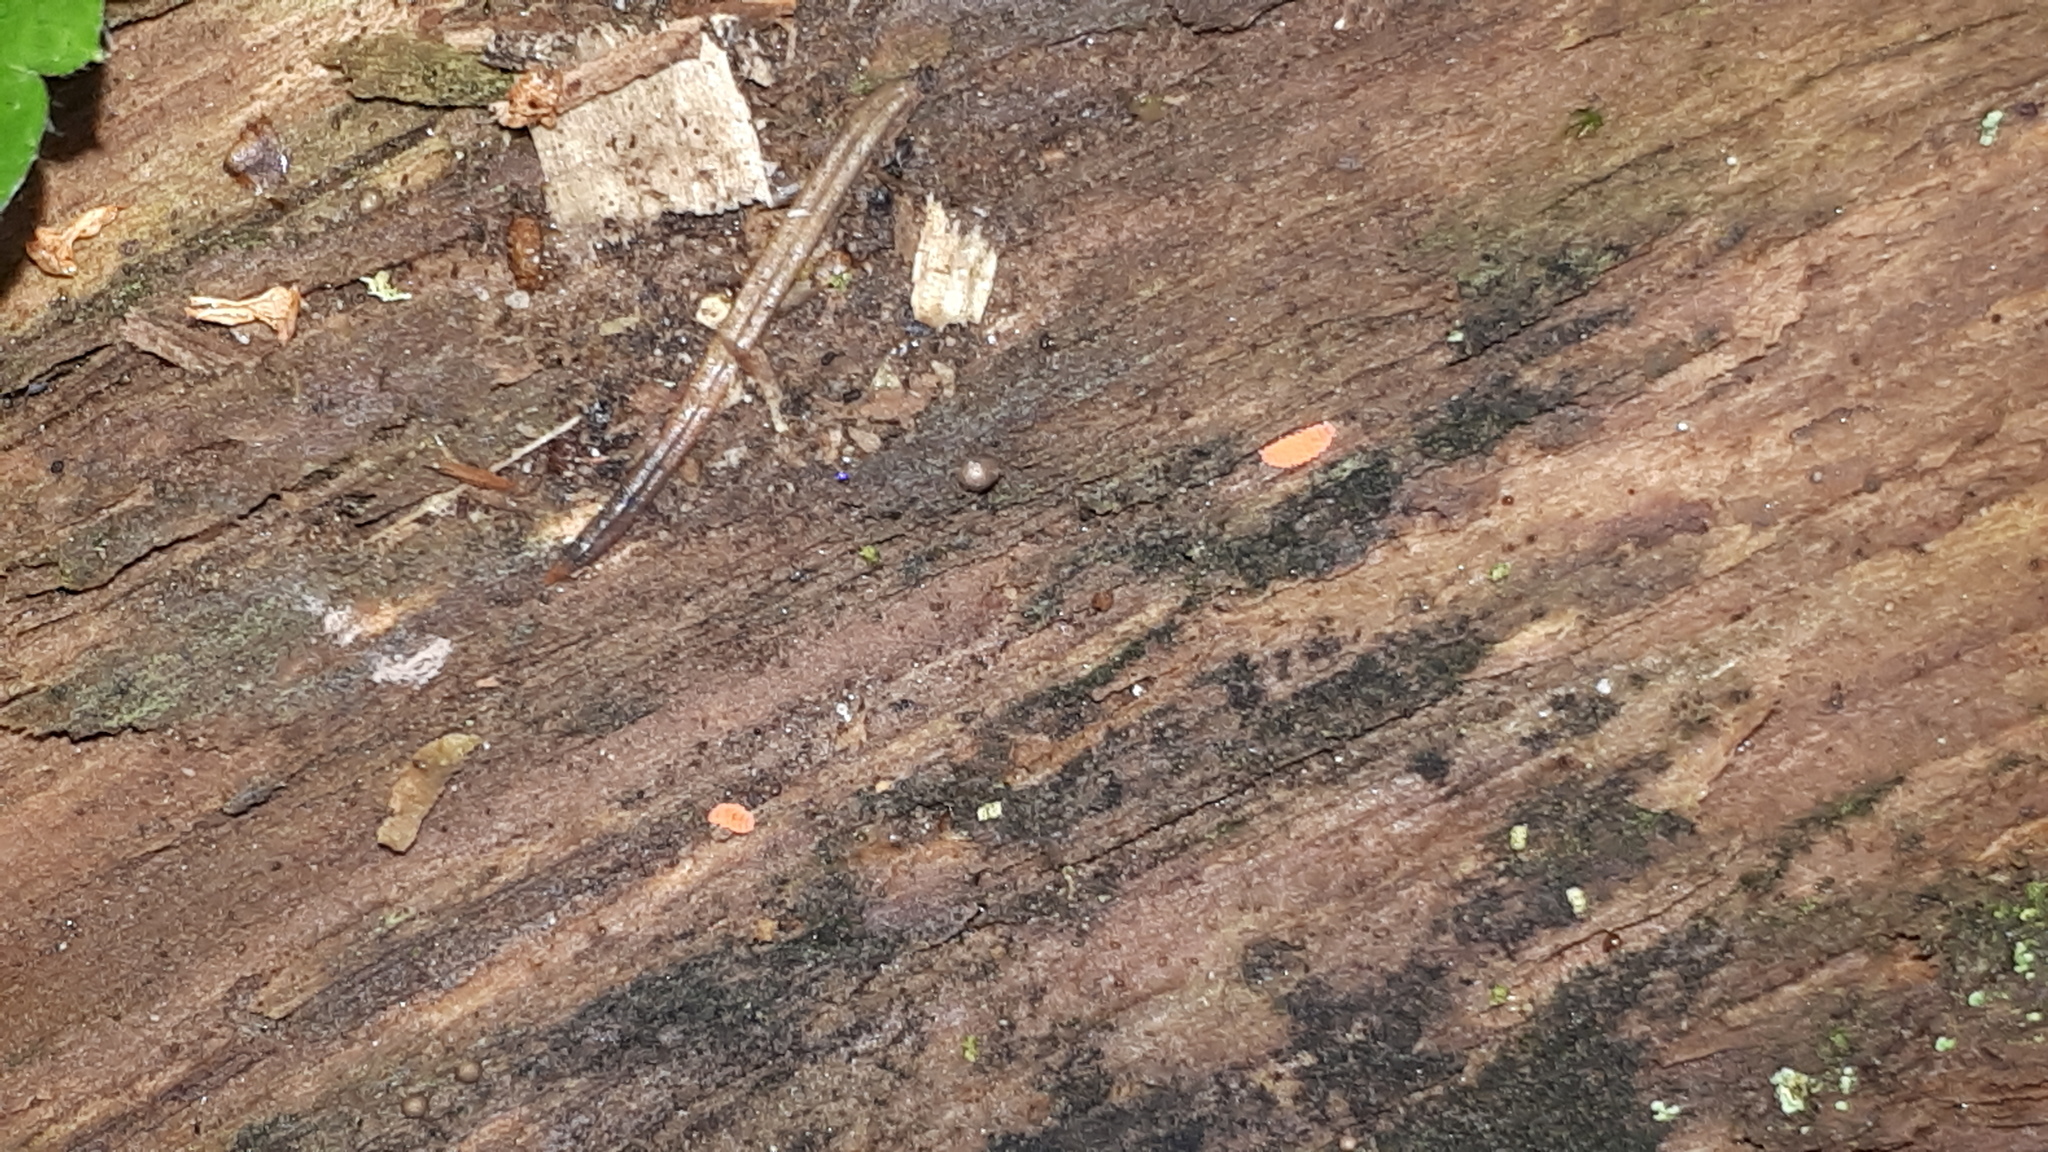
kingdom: Animalia
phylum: Arthropoda
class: Collembola
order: Poduromorpha
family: Neanuridae
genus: Bilobella
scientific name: Bilobella braunerae
